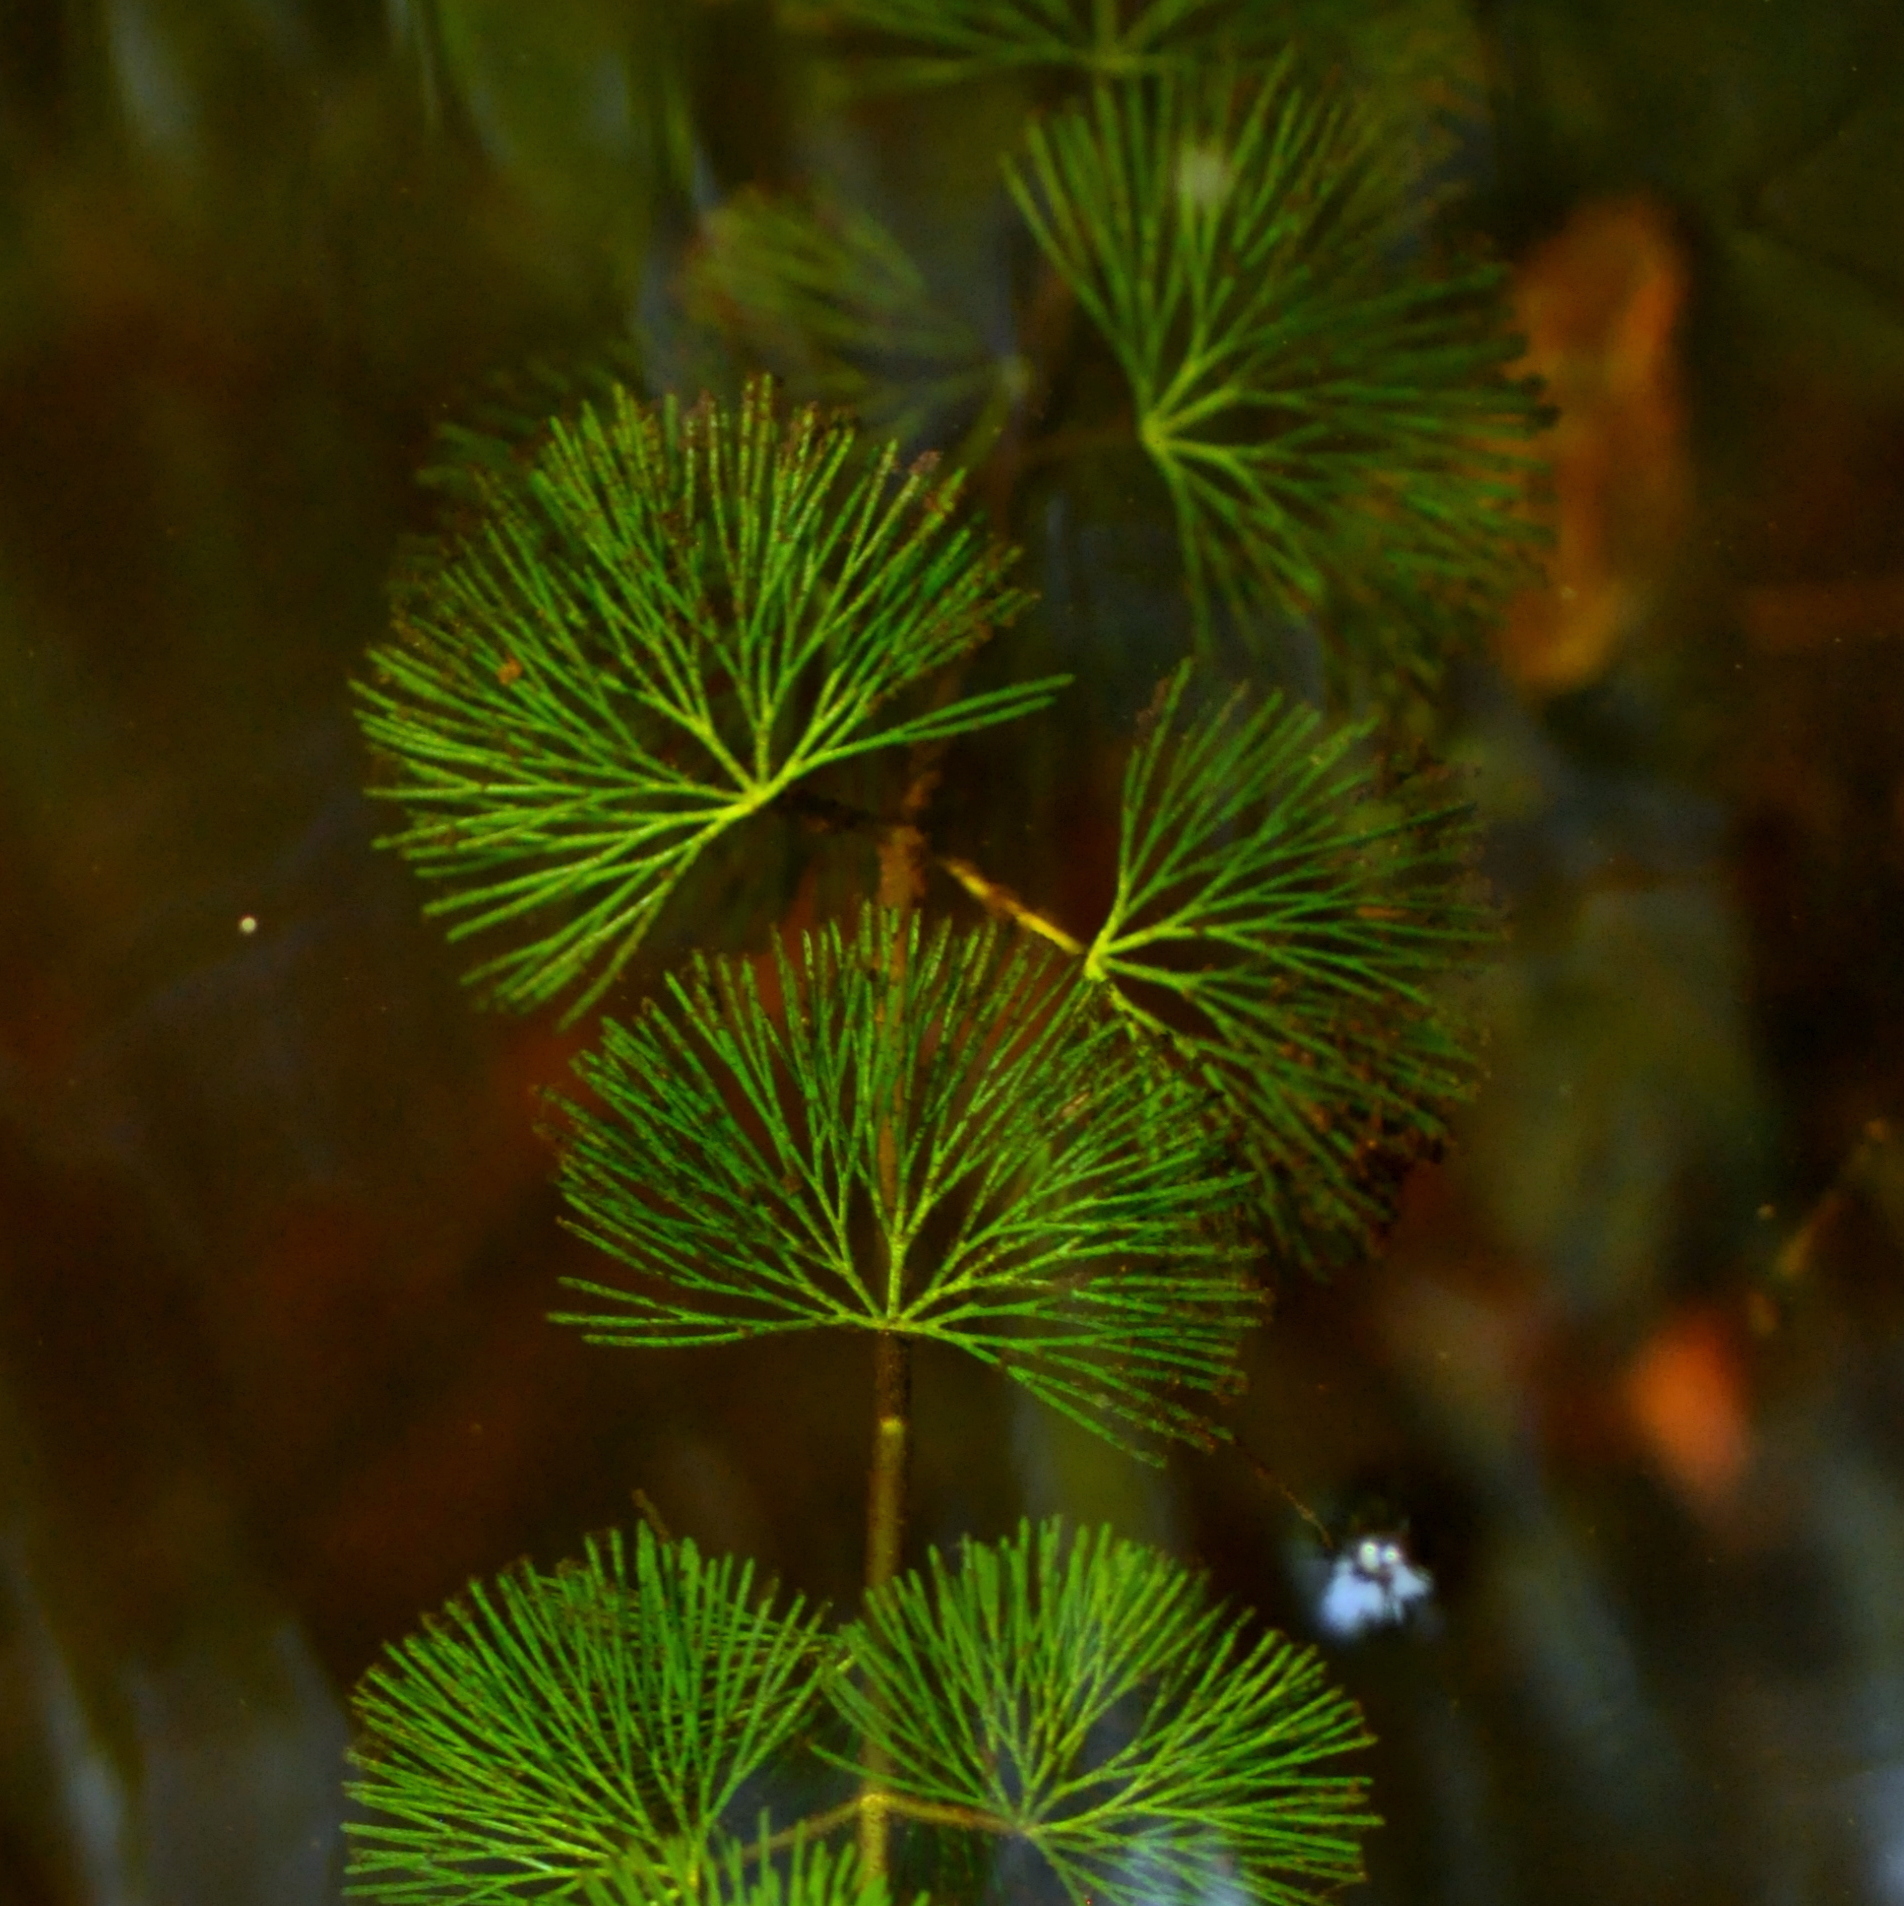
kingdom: Plantae
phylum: Tracheophyta
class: Magnoliopsida
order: Nymphaeales
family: Cabombaceae
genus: Cabomba
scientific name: Cabomba caroliniana
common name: Fanwort
